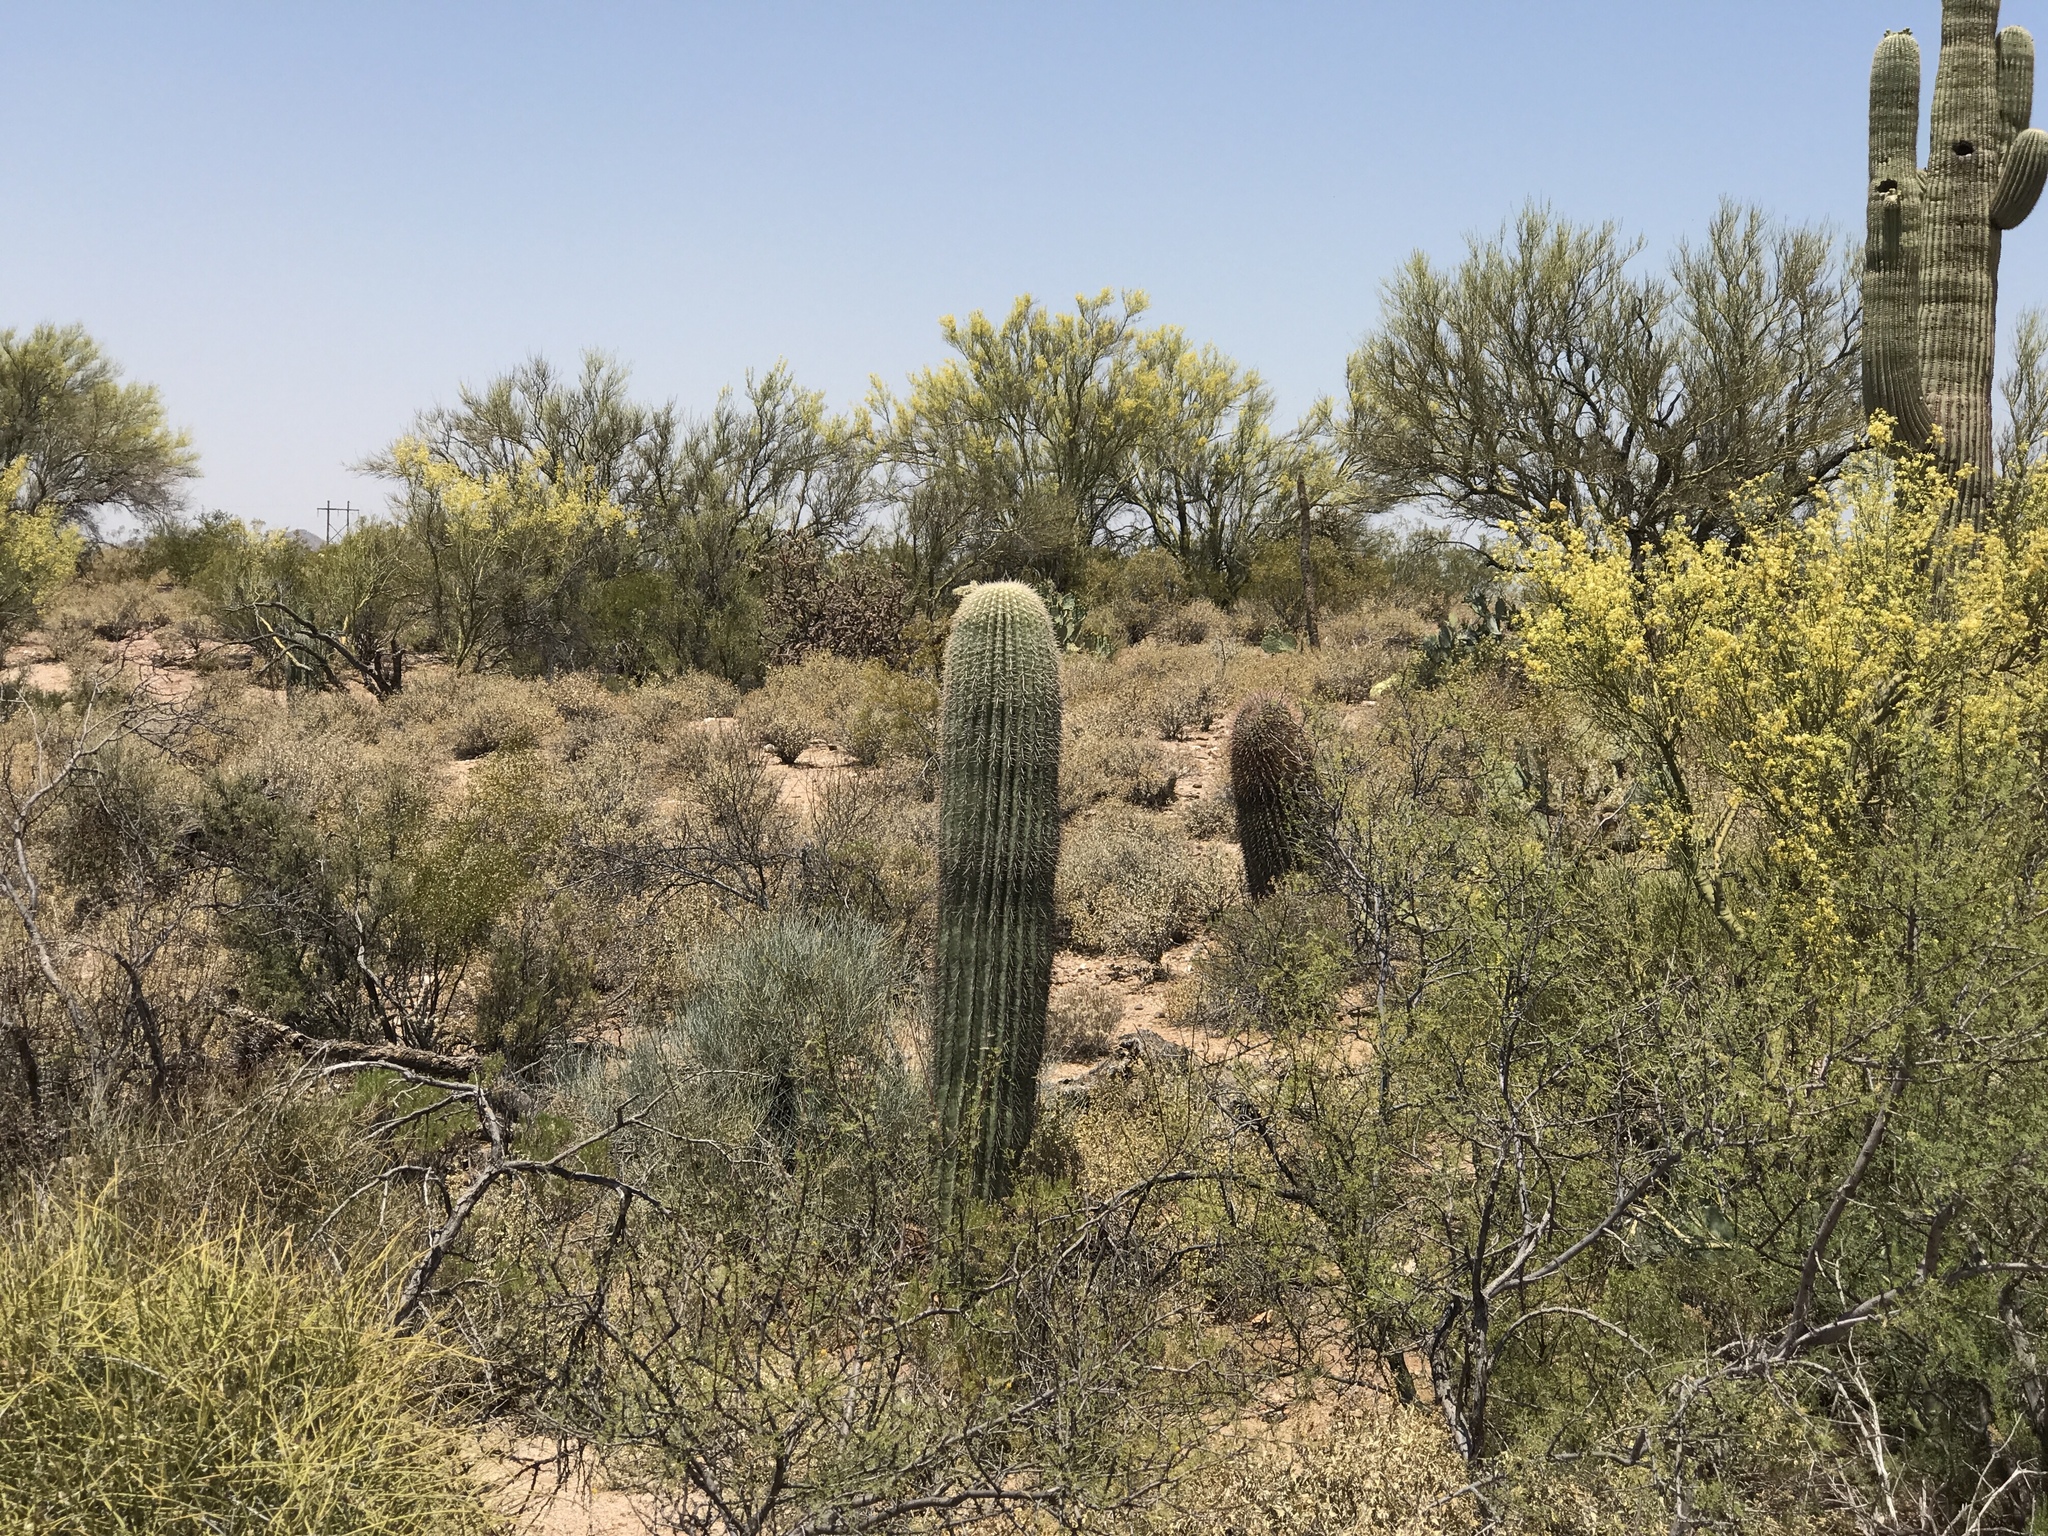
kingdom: Plantae
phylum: Tracheophyta
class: Magnoliopsida
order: Caryophyllales
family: Cactaceae
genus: Carnegiea
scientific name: Carnegiea gigantea
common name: Saguaro
